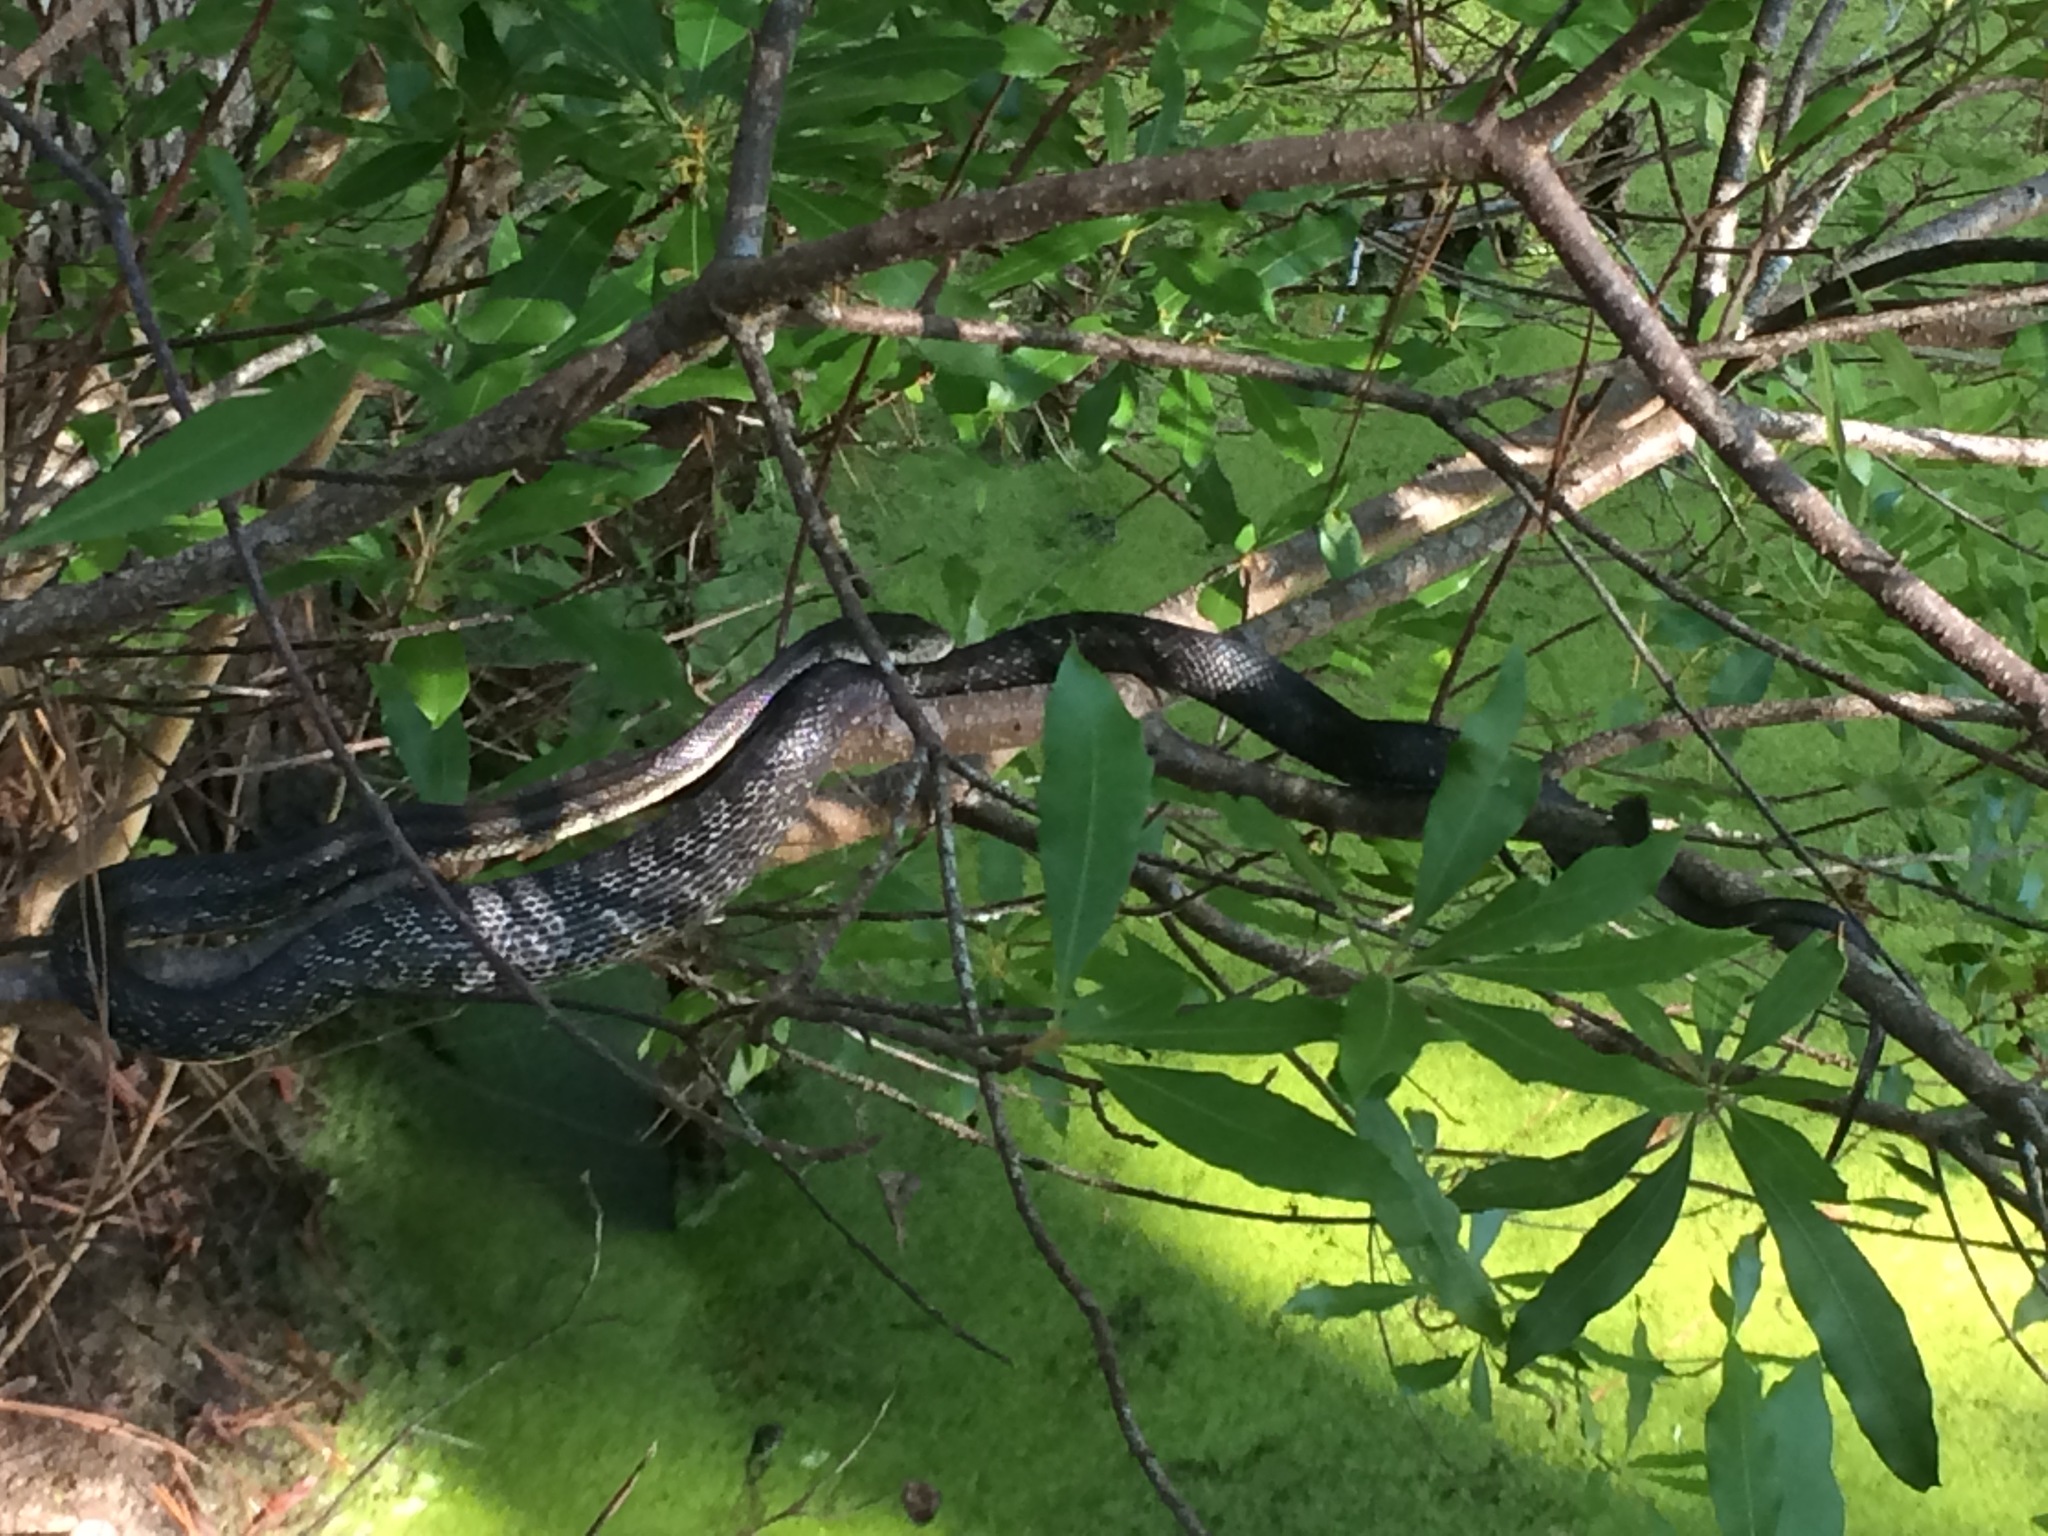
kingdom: Animalia
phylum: Chordata
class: Squamata
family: Colubridae
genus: Pantherophis
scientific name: Pantherophis alleghaniensis
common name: Eastern rat snake
